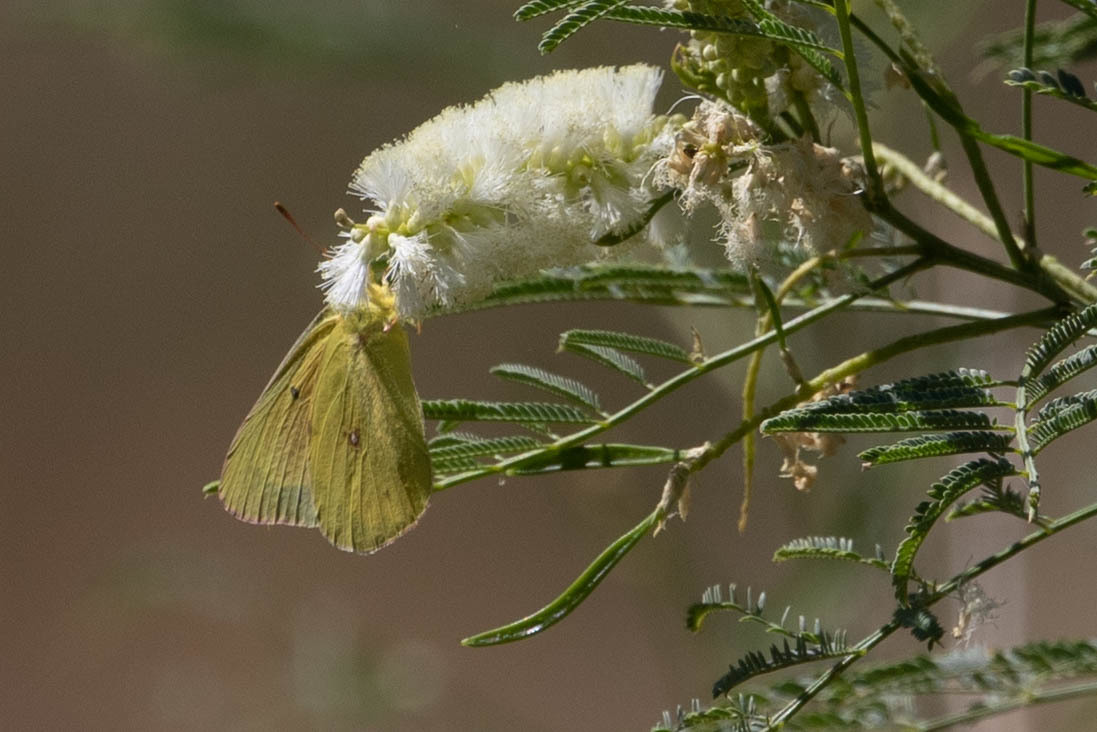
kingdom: Animalia
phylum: Arthropoda
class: Insecta
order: Lepidoptera
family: Pieridae
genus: Colias
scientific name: Colias eurytheme
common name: Alfalfa butterfly
